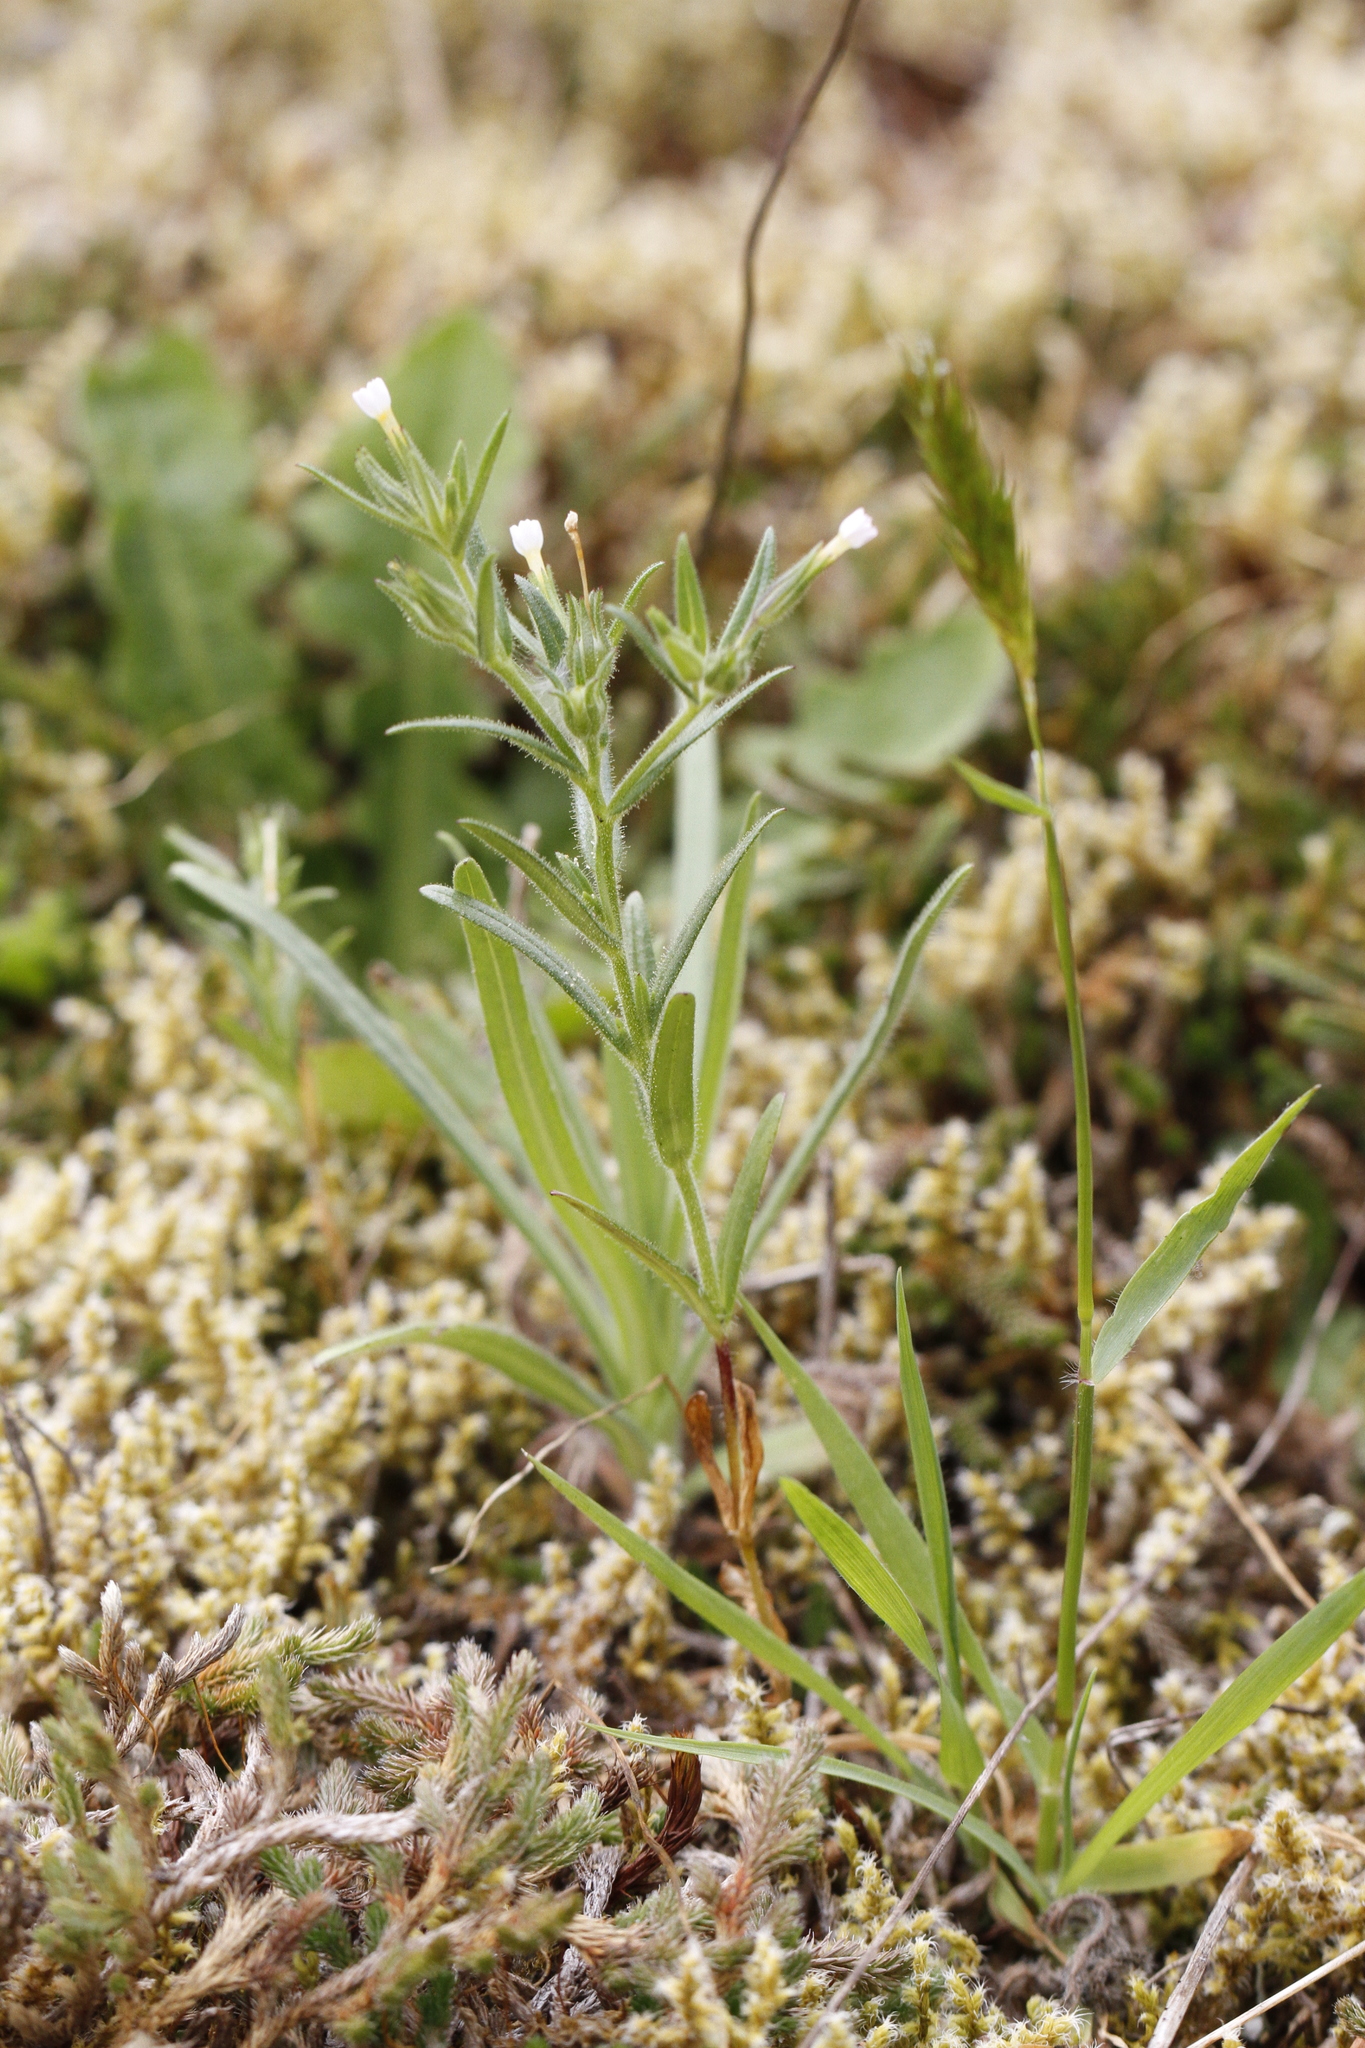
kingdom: Plantae
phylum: Tracheophyta
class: Magnoliopsida
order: Ericales
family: Polemoniaceae
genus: Phlox
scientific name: Phlox gracilis
